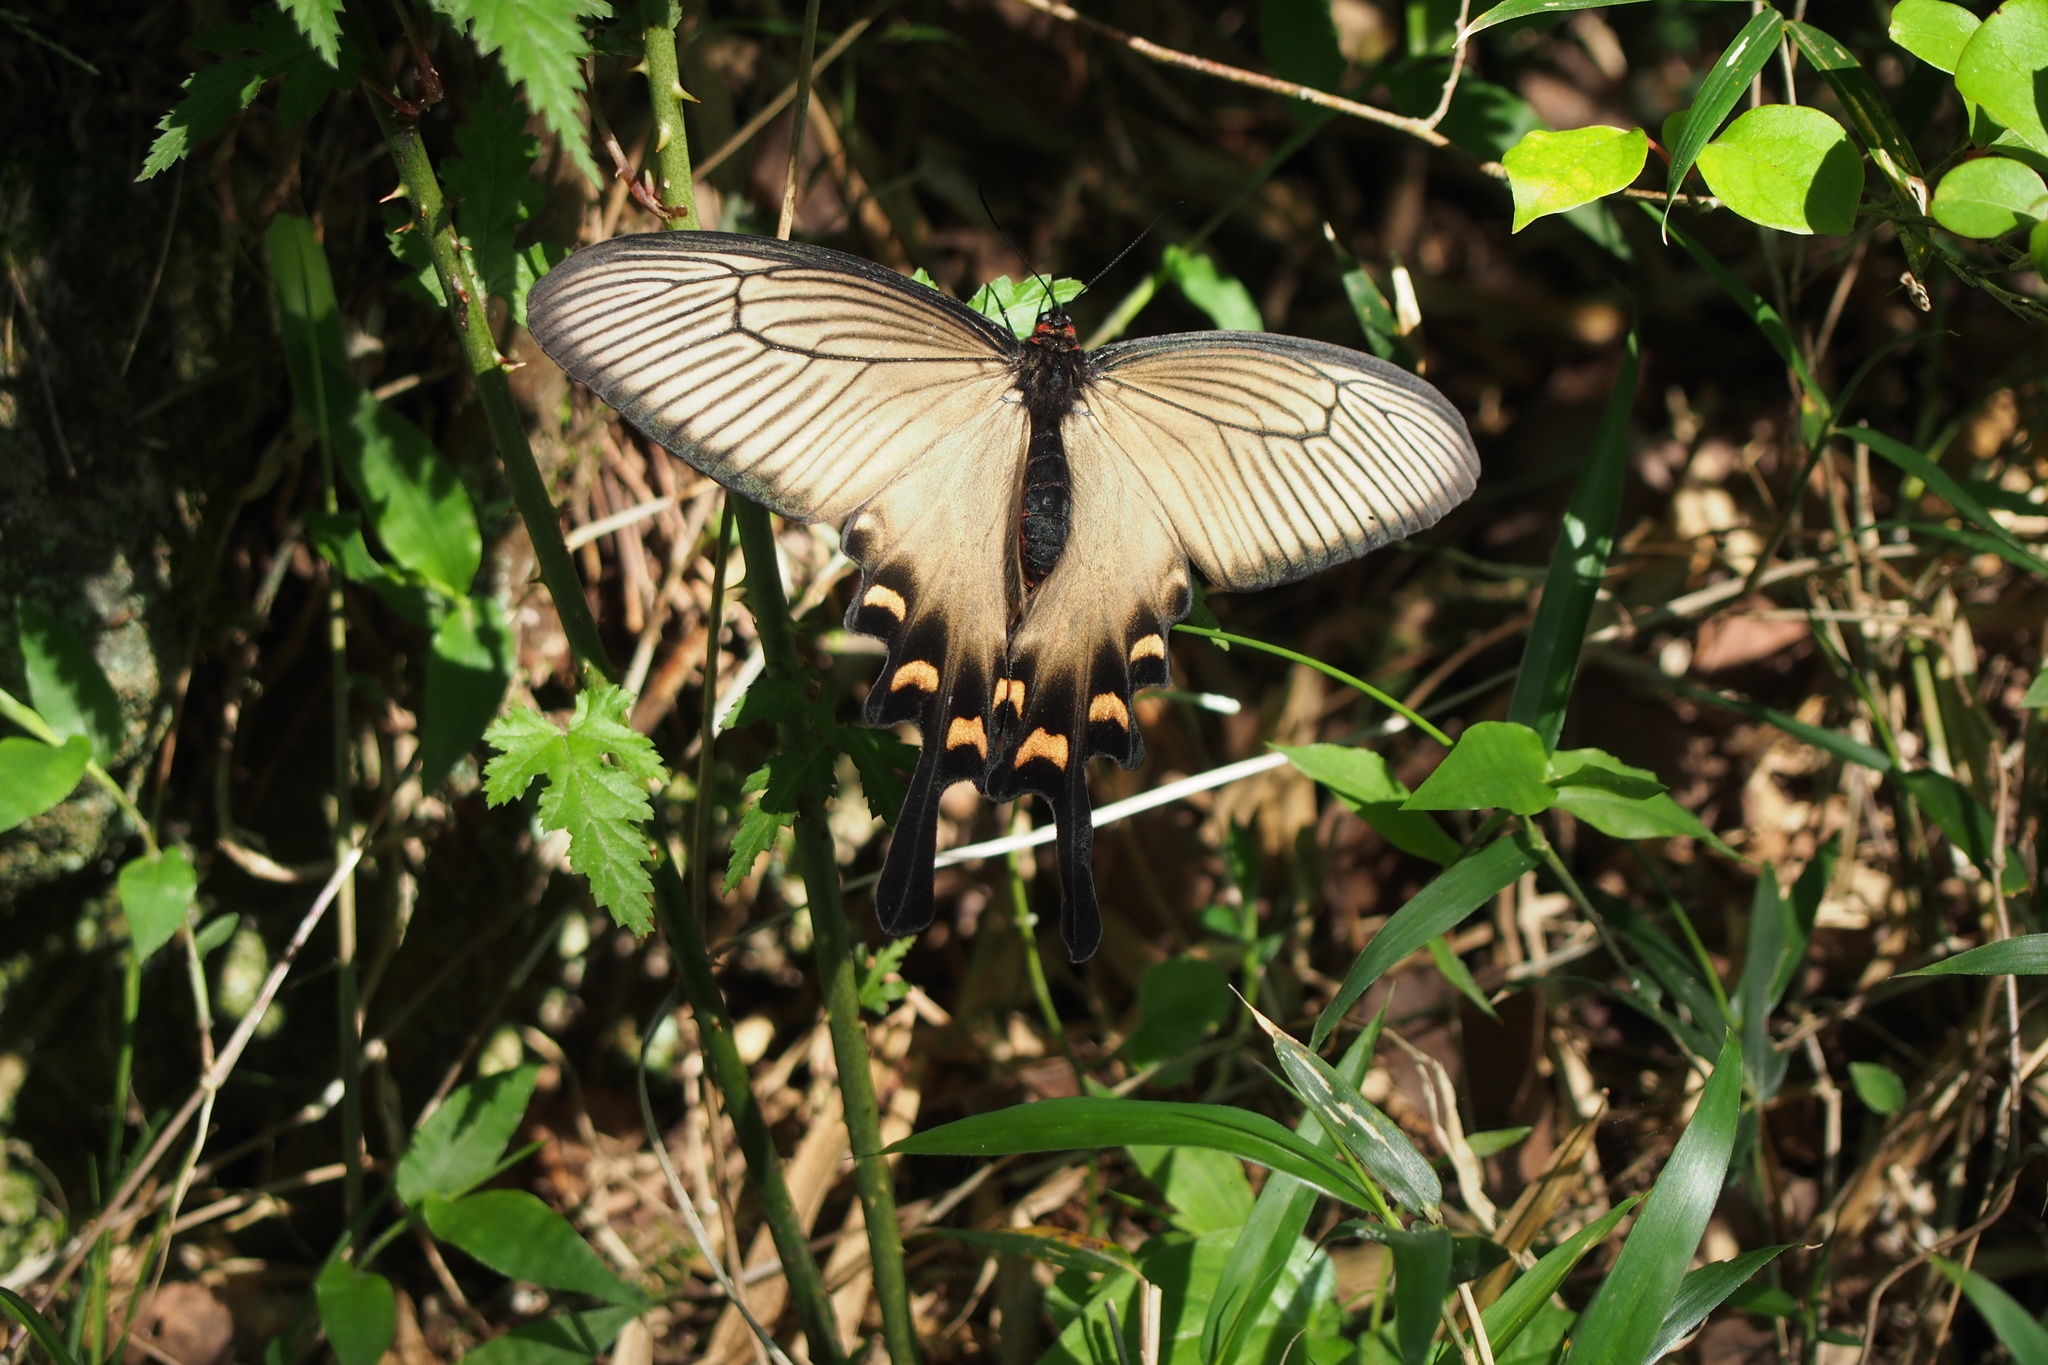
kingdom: Animalia
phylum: Arthropoda
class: Insecta
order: Lepidoptera
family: Papilionidae
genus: Byasa
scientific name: Byasa alcinous
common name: Chinese windmill
